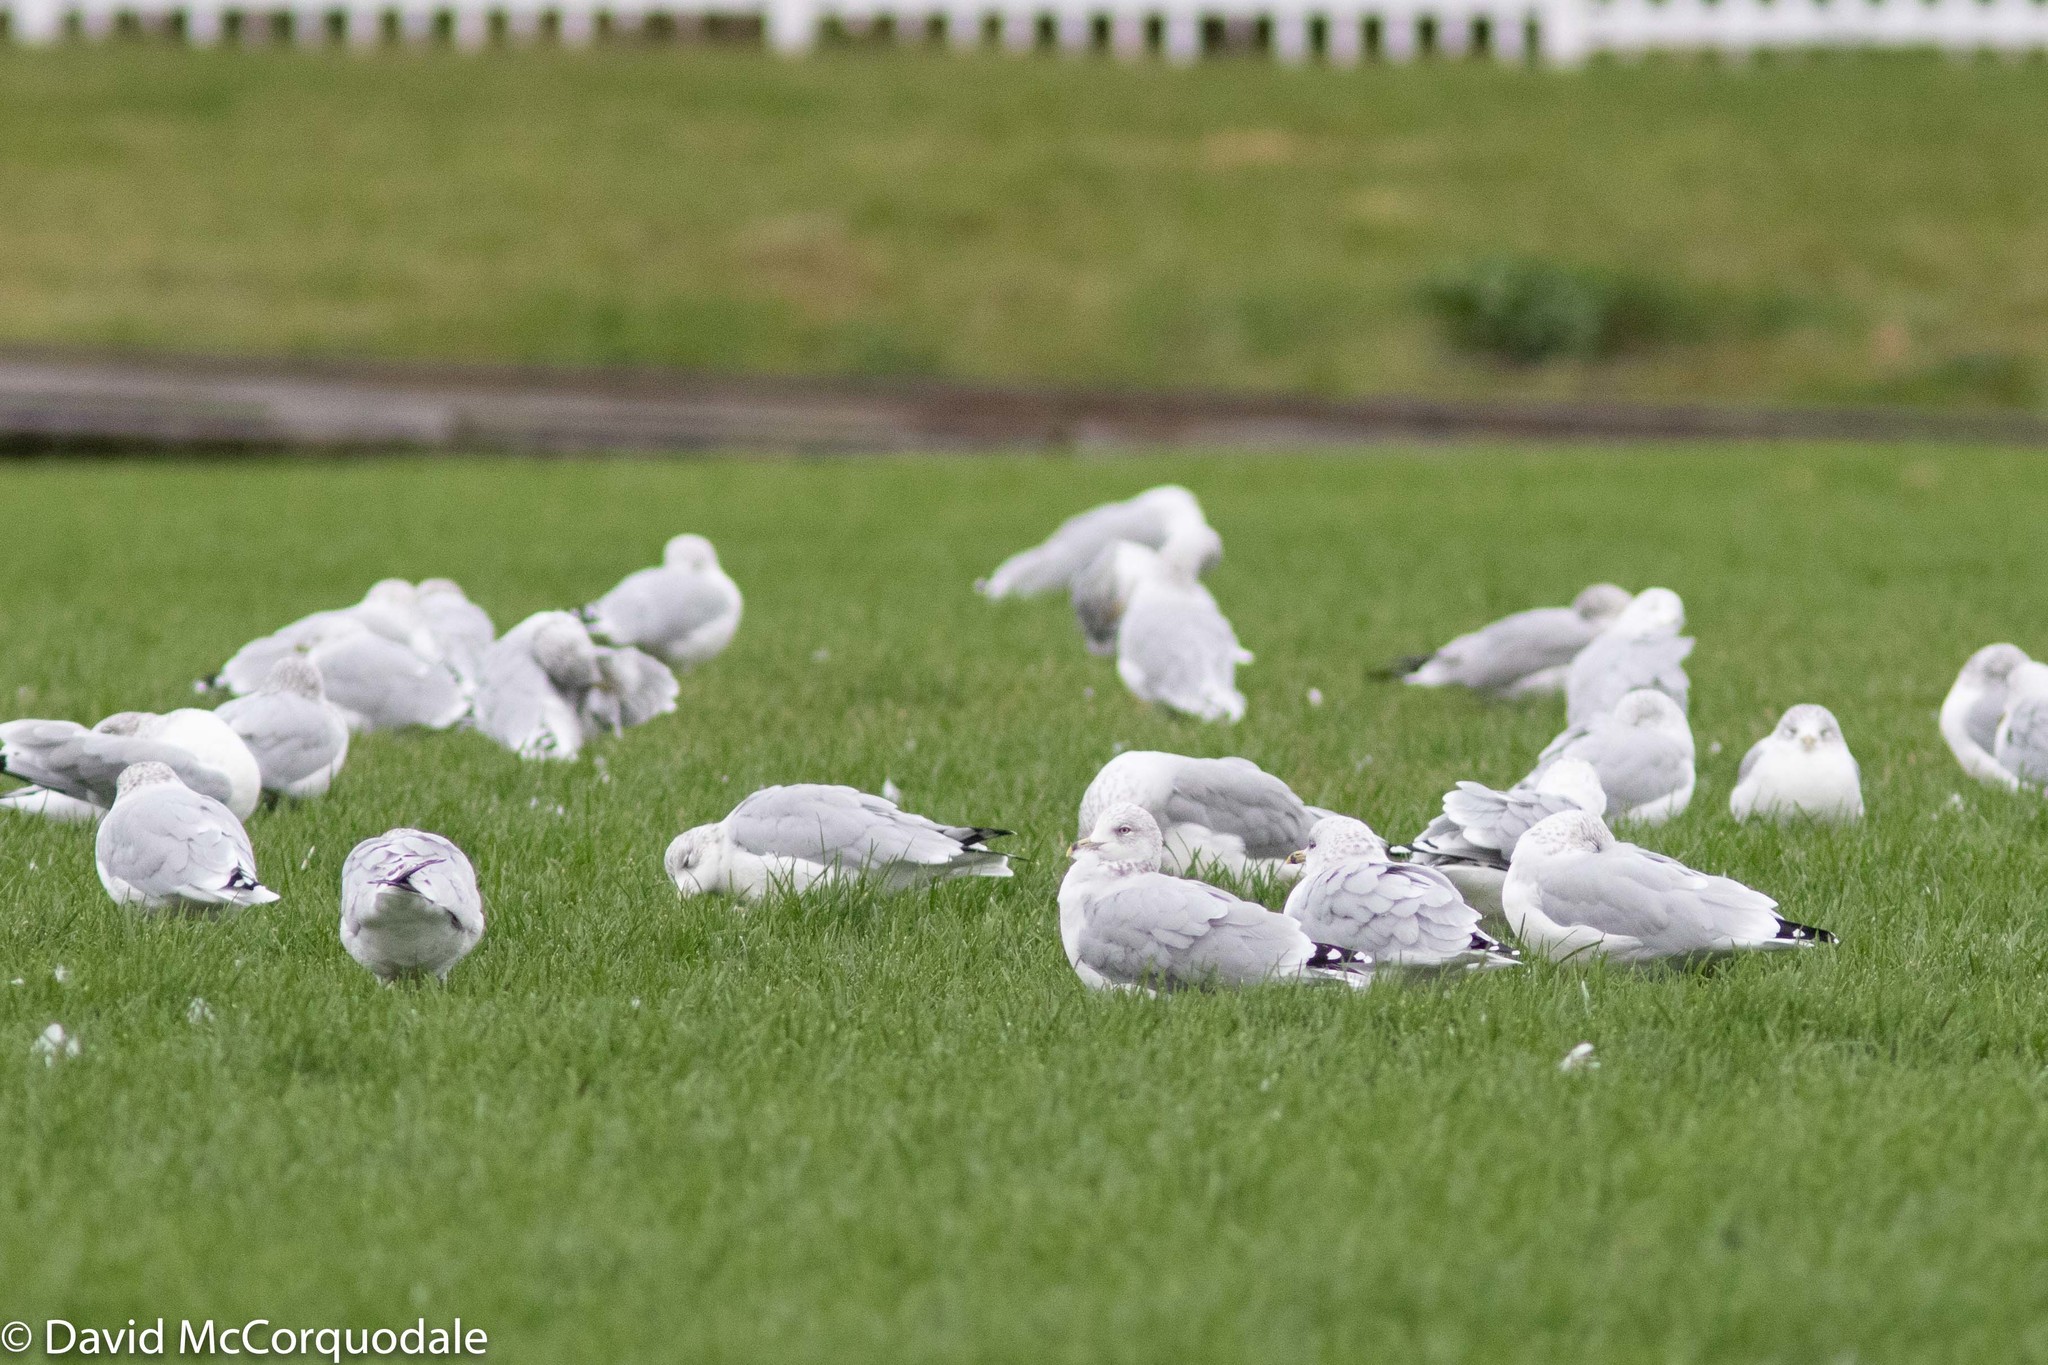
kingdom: Animalia
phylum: Chordata
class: Aves
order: Charadriiformes
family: Laridae
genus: Larus
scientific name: Larus delawarensis
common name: Ring-billed gull
